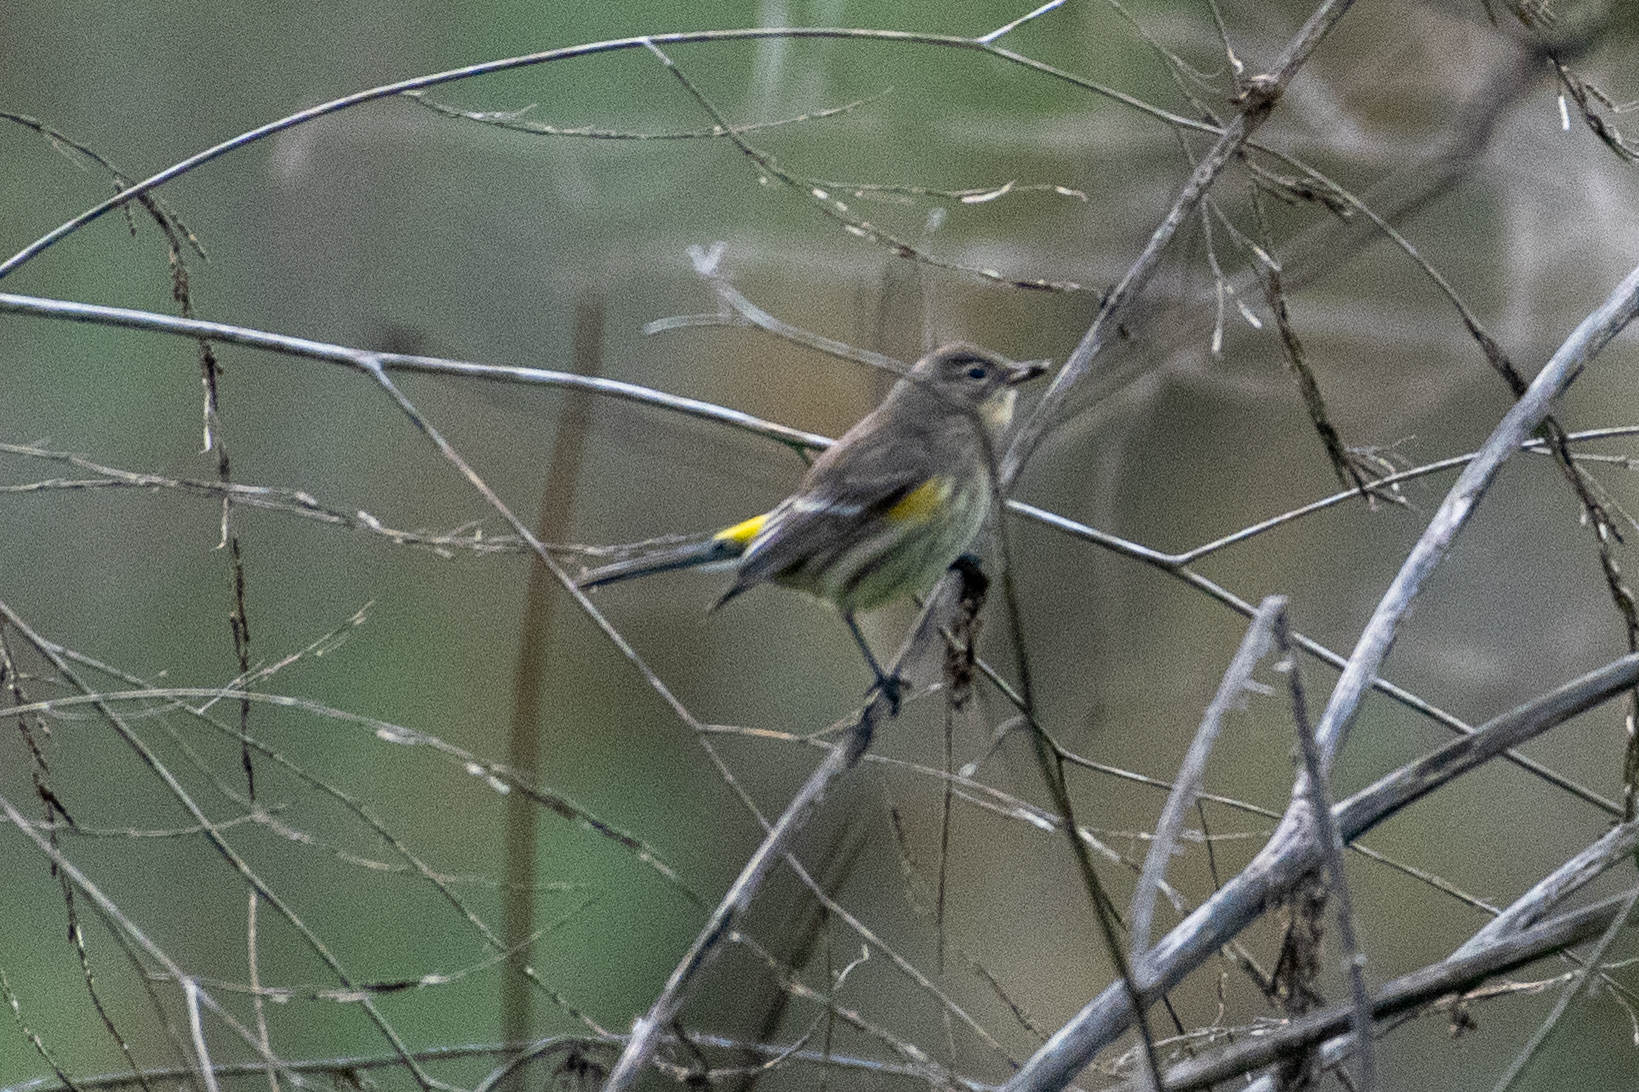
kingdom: Animalia
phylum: Chordata
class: Aves
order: Passeriformes
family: Parulidae
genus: Setophaga
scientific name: Setophaga coronata
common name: Myrtle warbler
